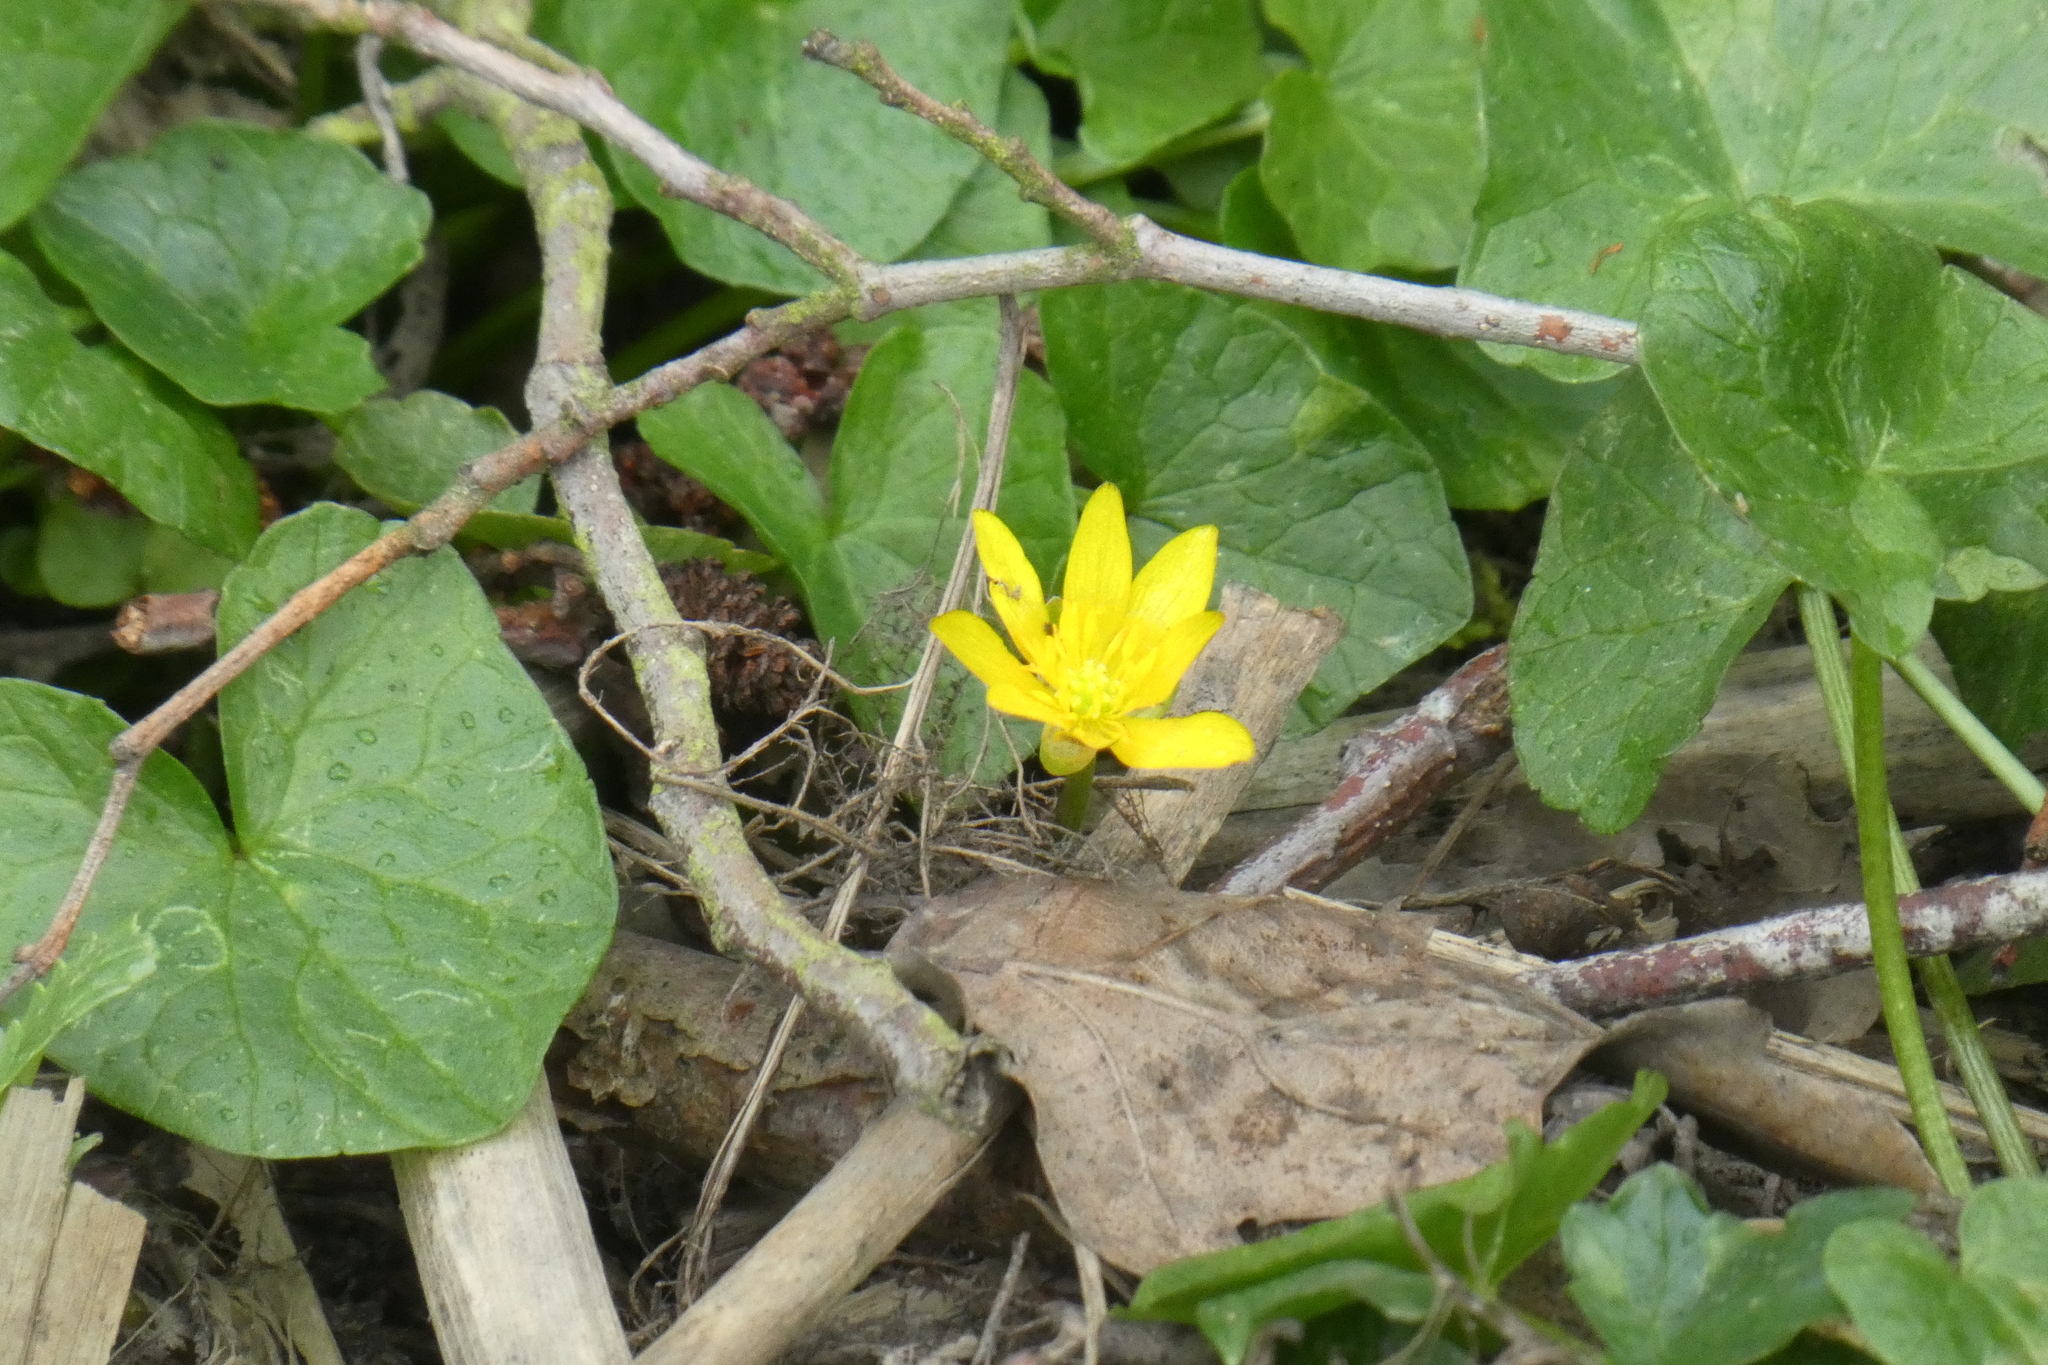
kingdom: Plantae
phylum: Tracheophyta
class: Magnoliopsida
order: Ranunculales
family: Ranunculaceae
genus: Ficaria
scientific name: Ficaria verna
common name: Lesser celandine
